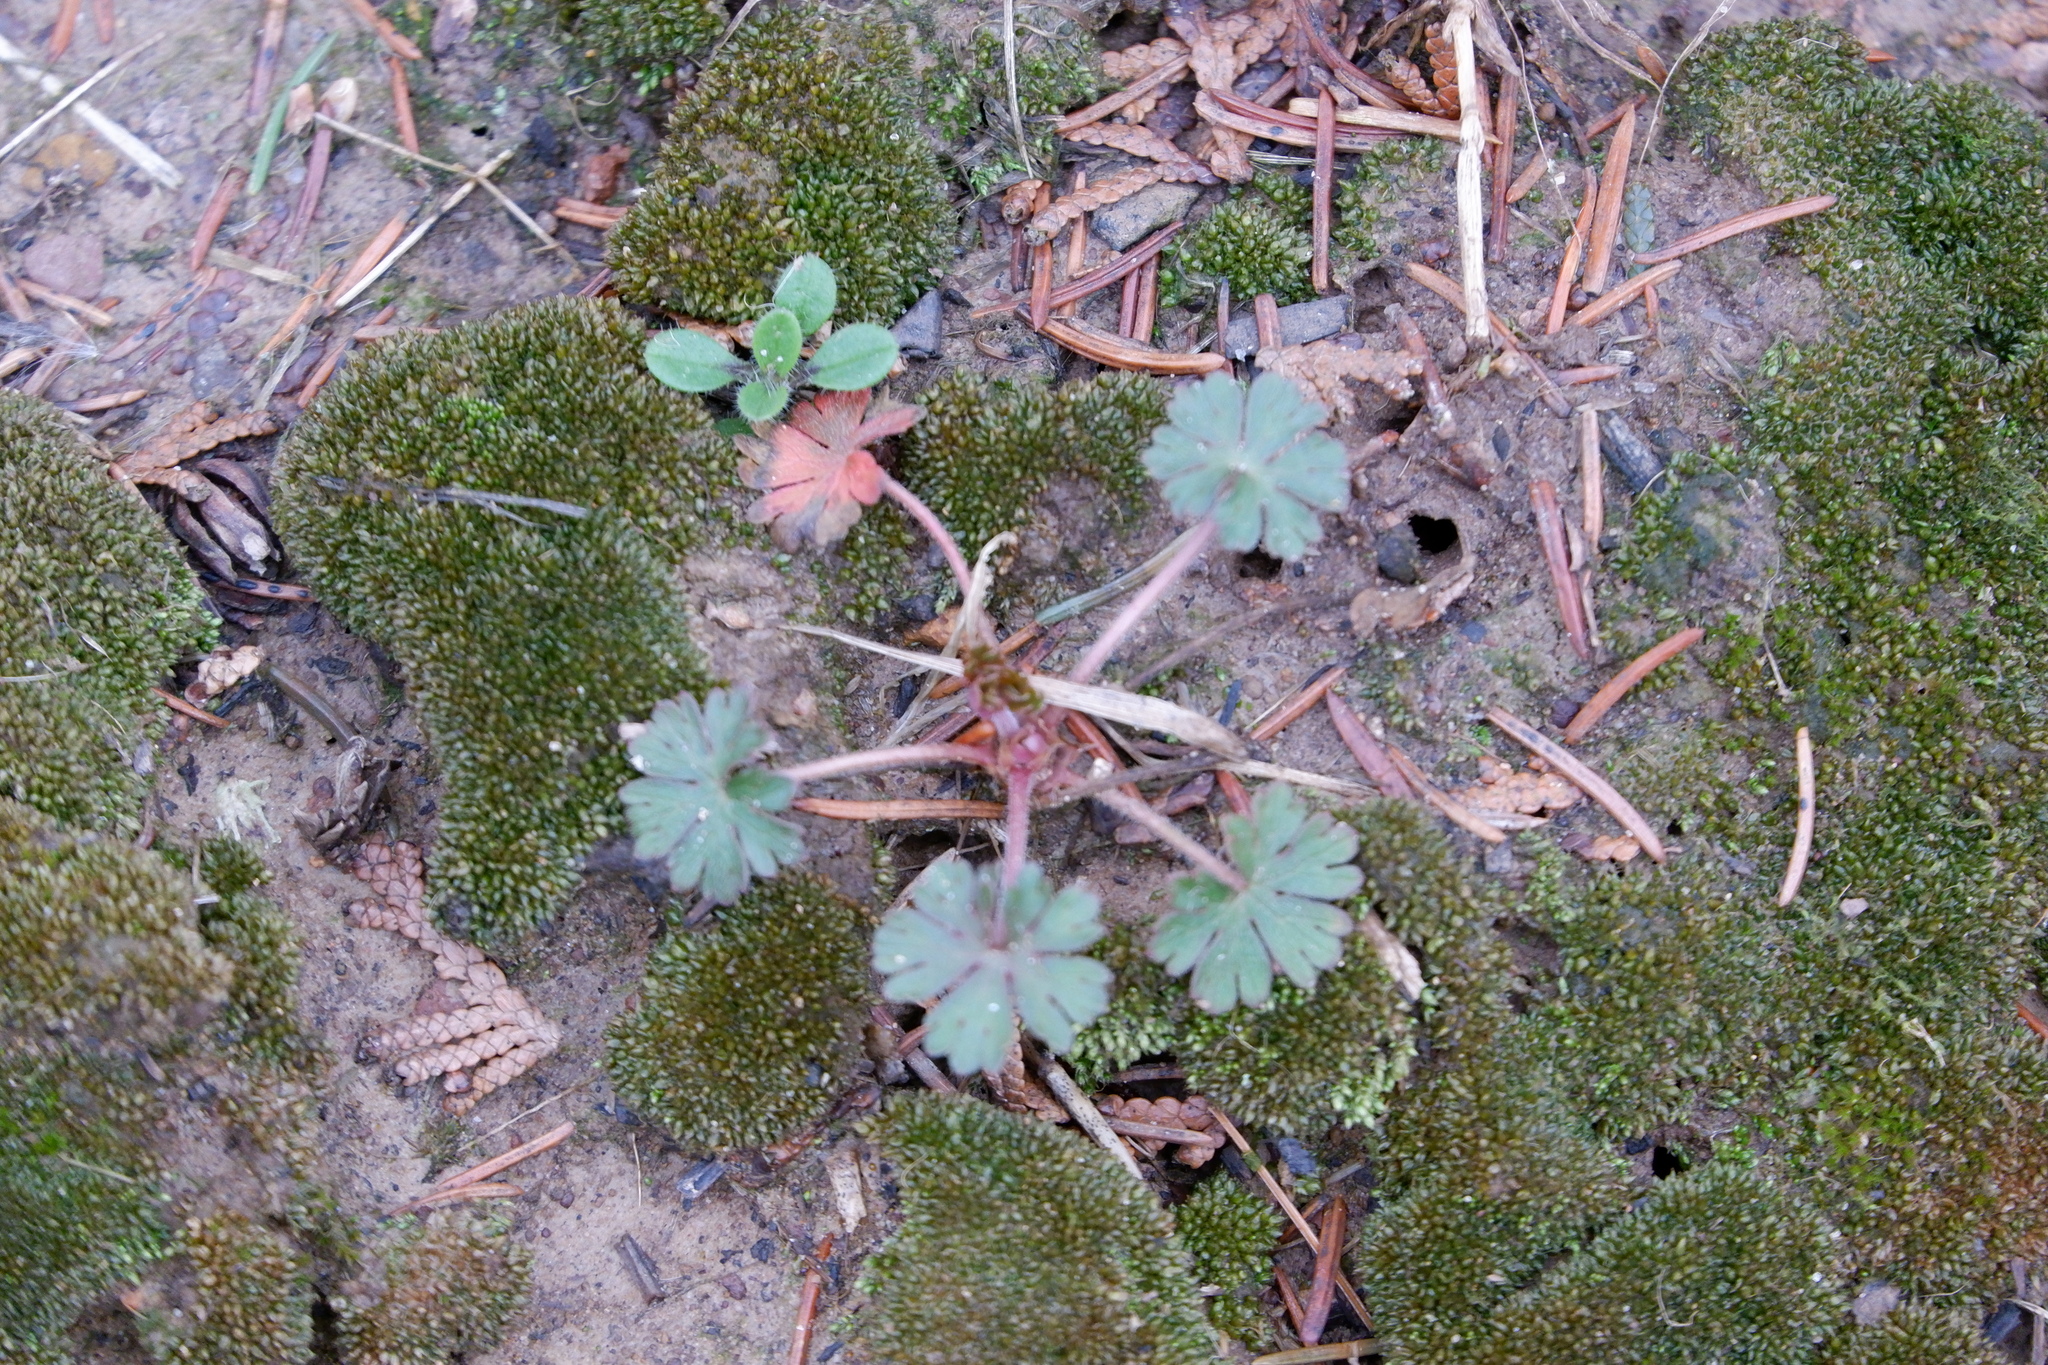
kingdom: Plantae
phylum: Tracheophyta
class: Magnoliopsida
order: Geraniales
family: Geraniaceae
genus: Geranium
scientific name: Geranium carolinianum
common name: Carolina crane's-bill
